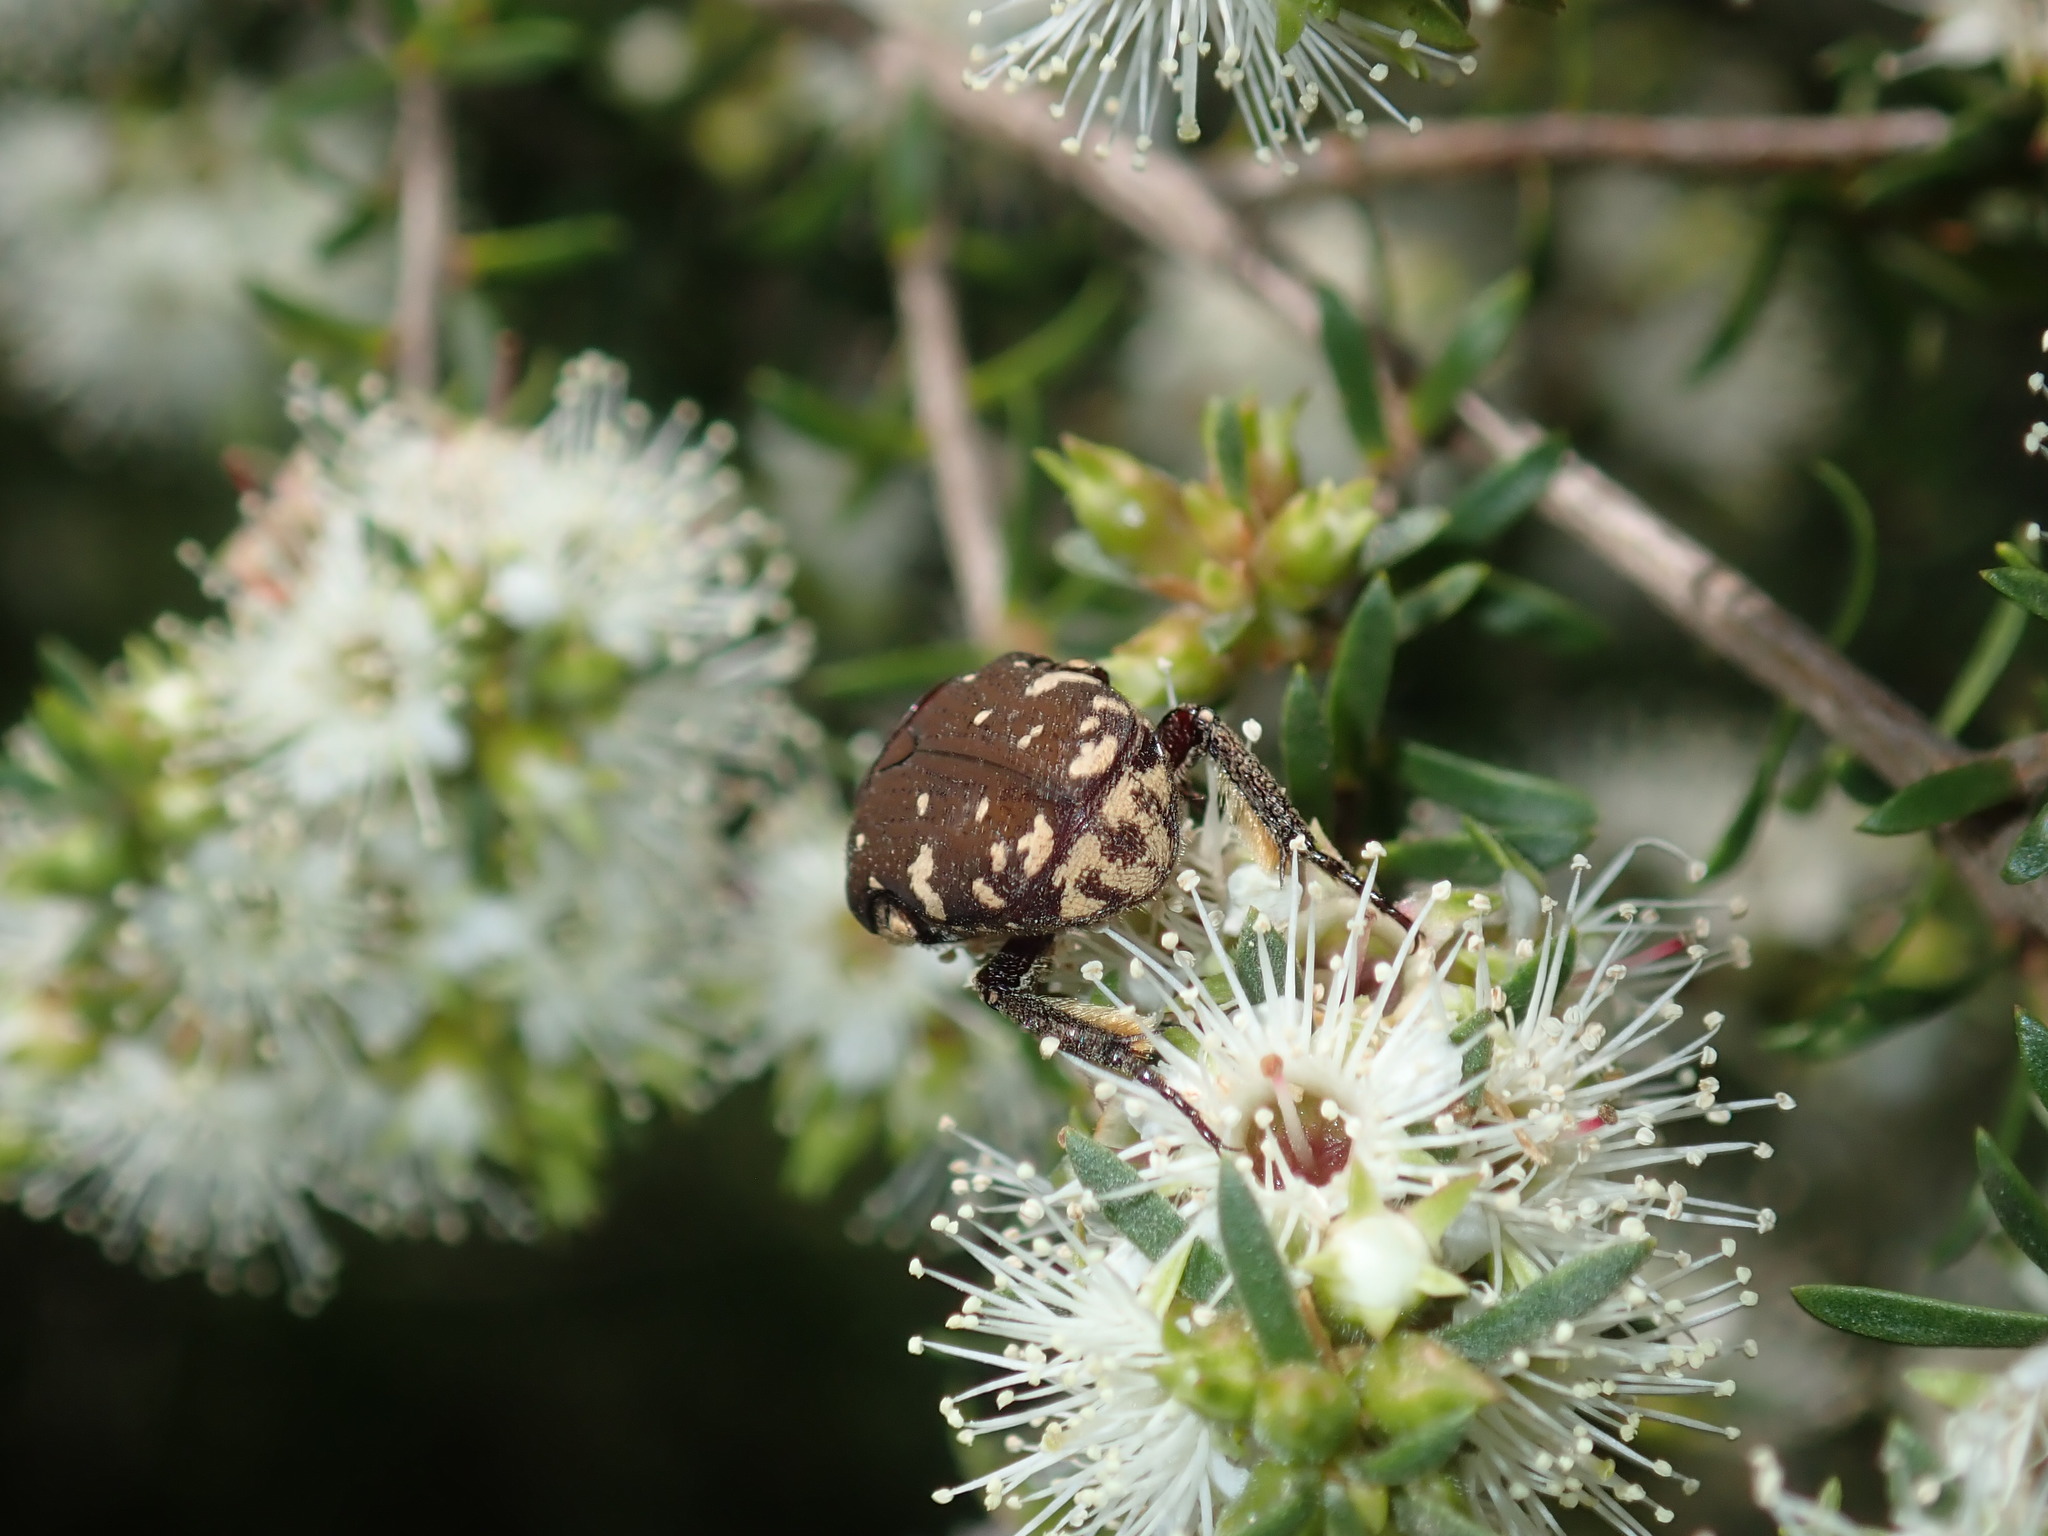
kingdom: Animalia
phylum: Arthropoda
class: Insecta
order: Coleoptera
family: Scarabaeidae
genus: Glycyphana
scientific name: Glycyphana stolata
